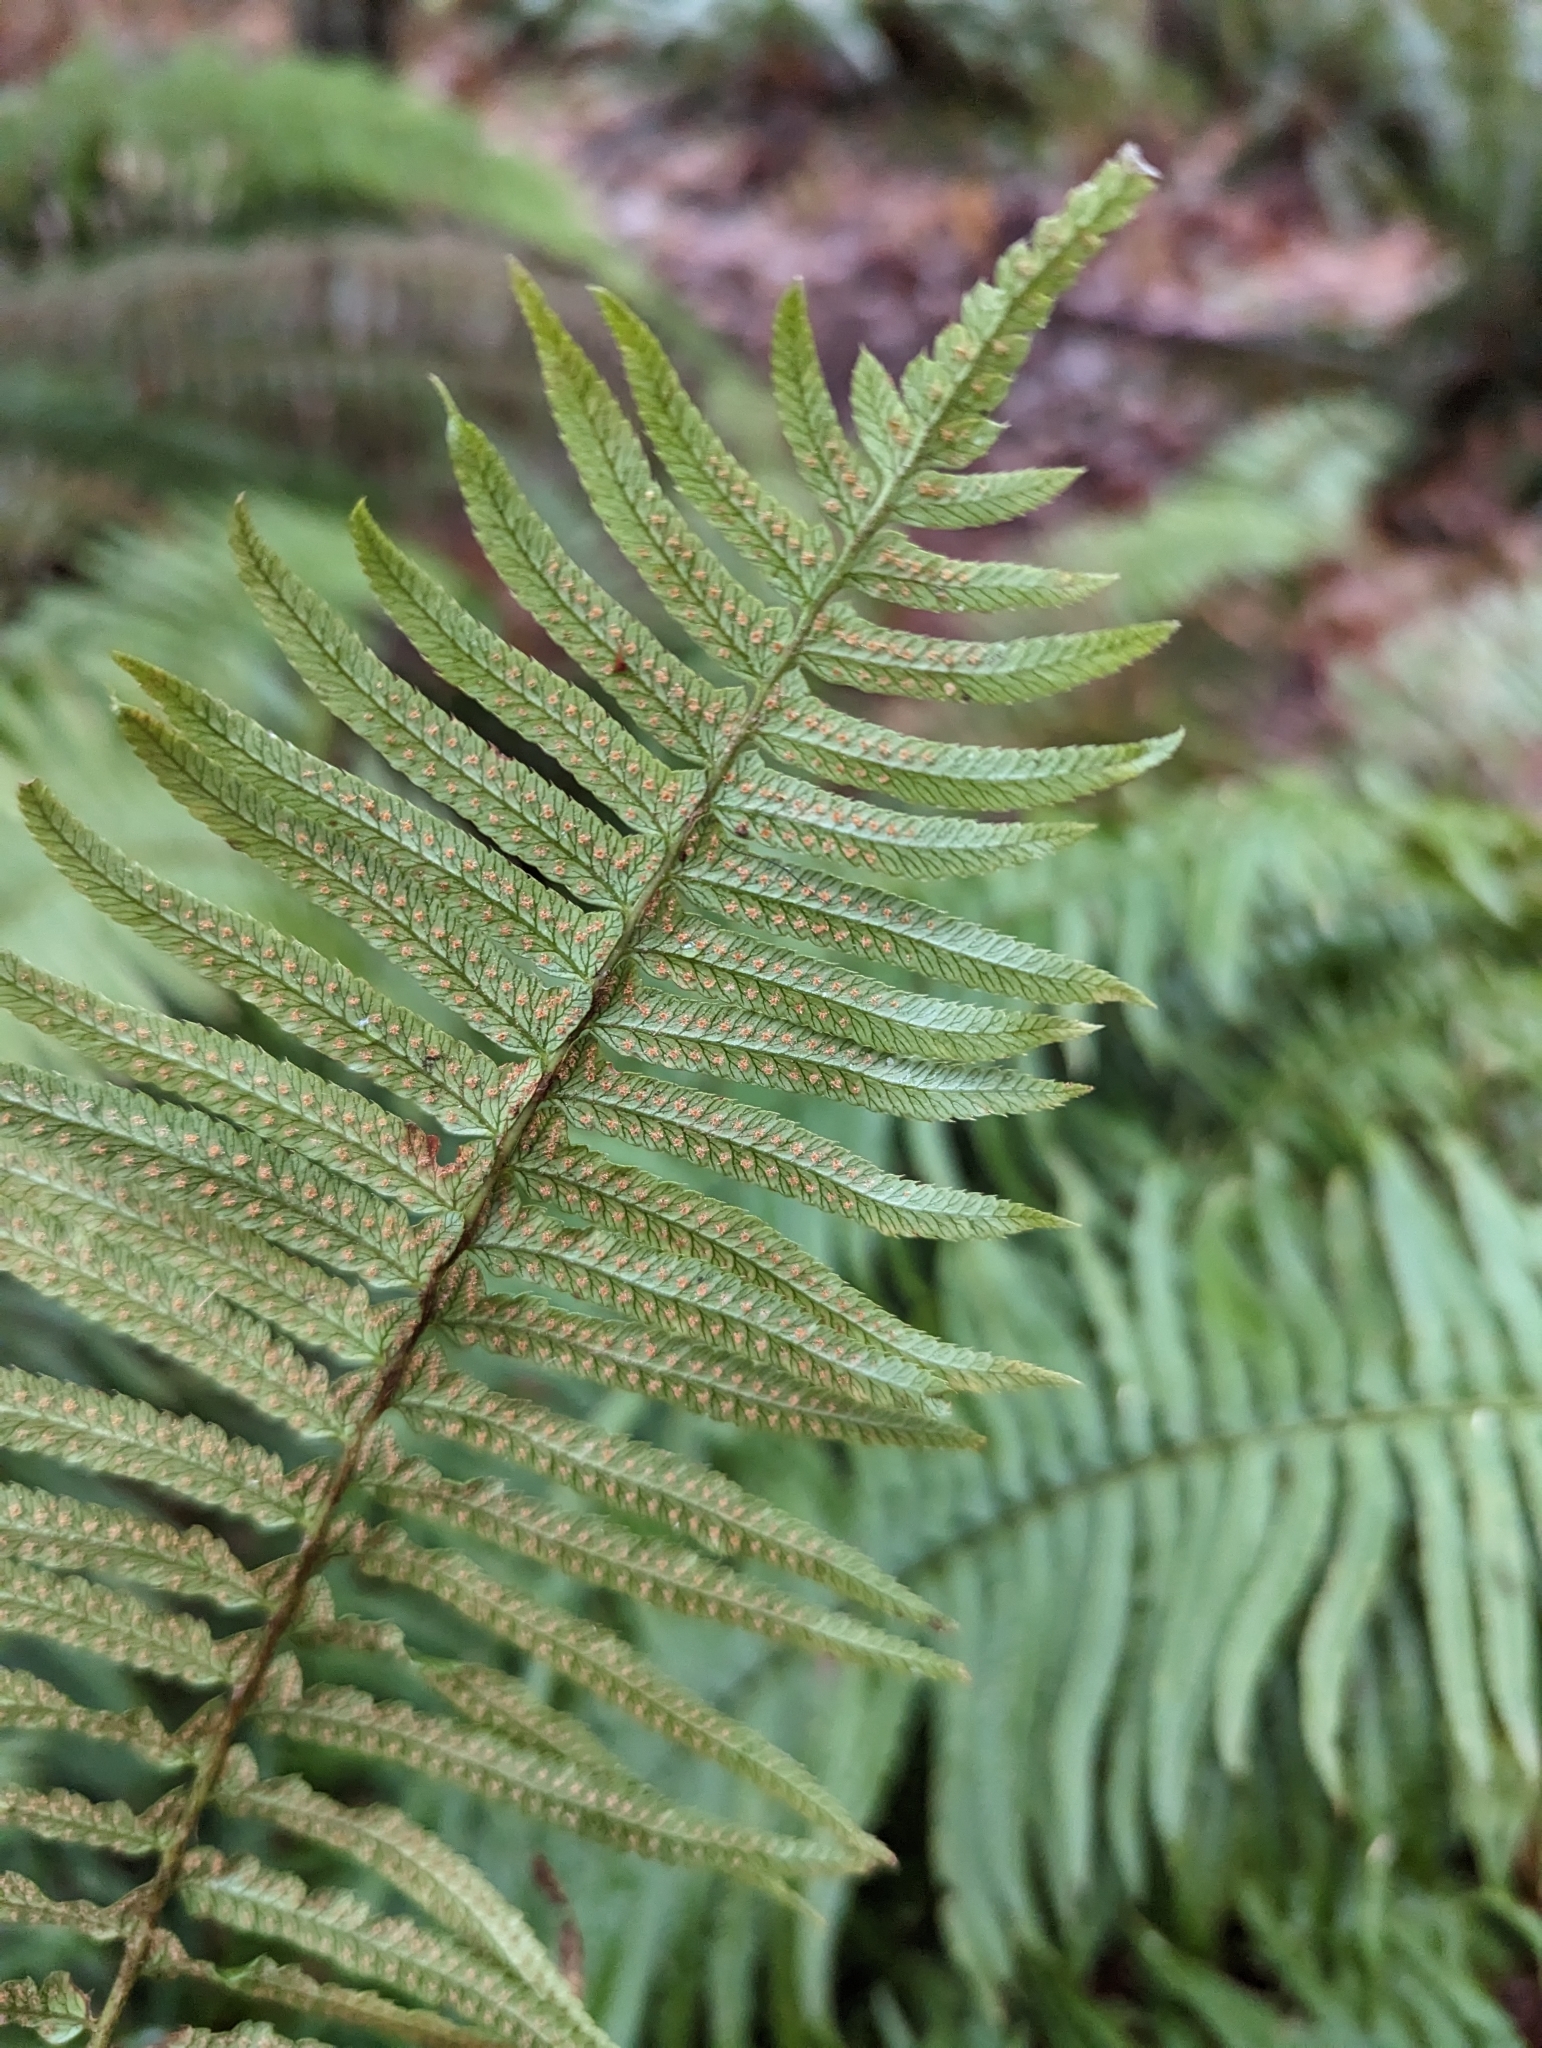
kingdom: Plantae
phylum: Tracheophyta
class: Polypodiopsida
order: Polypodiales
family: Dryopteridaceae
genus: Polystichum
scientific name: Polystichum munitum
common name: Western sword-fern
